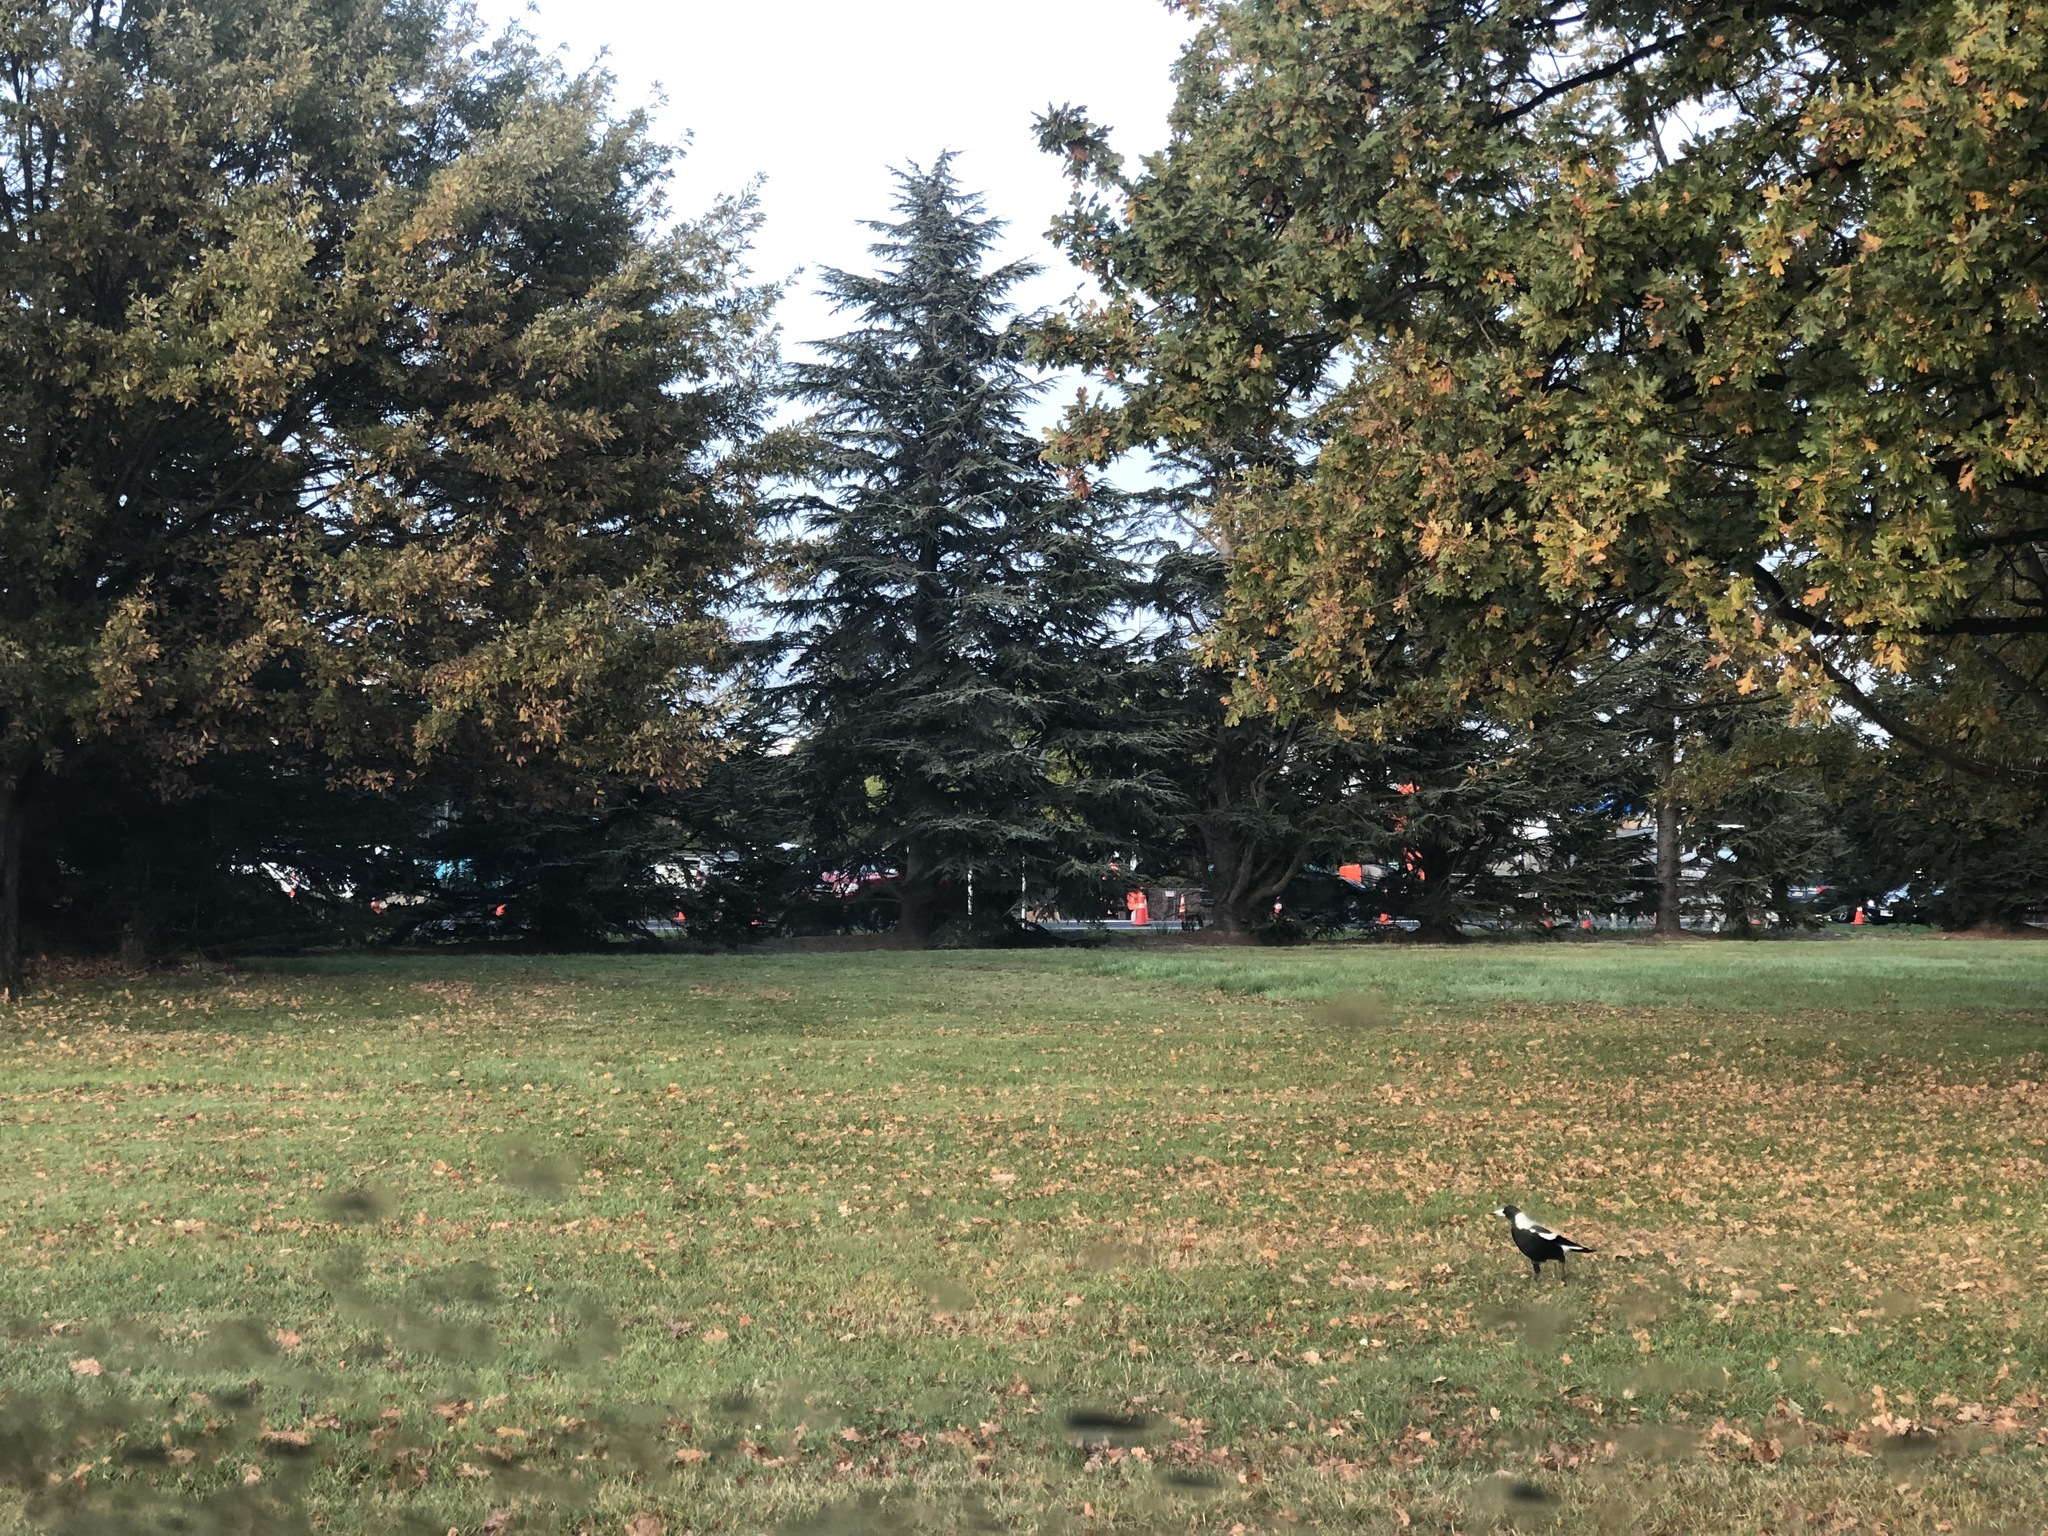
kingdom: Animalia
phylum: Chordata
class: Aves
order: Passeriformes
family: Cracticidae
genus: Gymnorhina
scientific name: Gymnorhina tibicen
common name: Australian magpie
